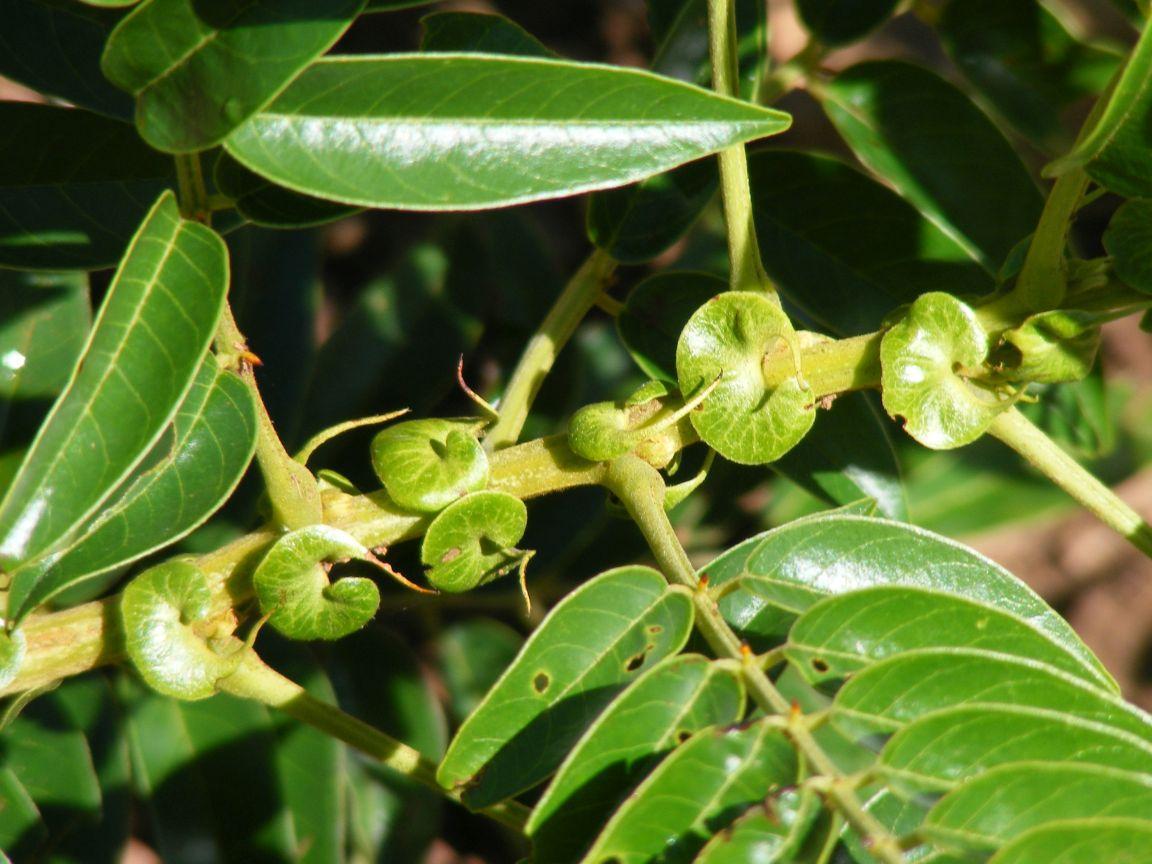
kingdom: Plantae
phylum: Tracheophyta
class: Magnoliopsida
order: Fabales
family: Fabaceae
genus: Senna
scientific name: Senna petersiana
